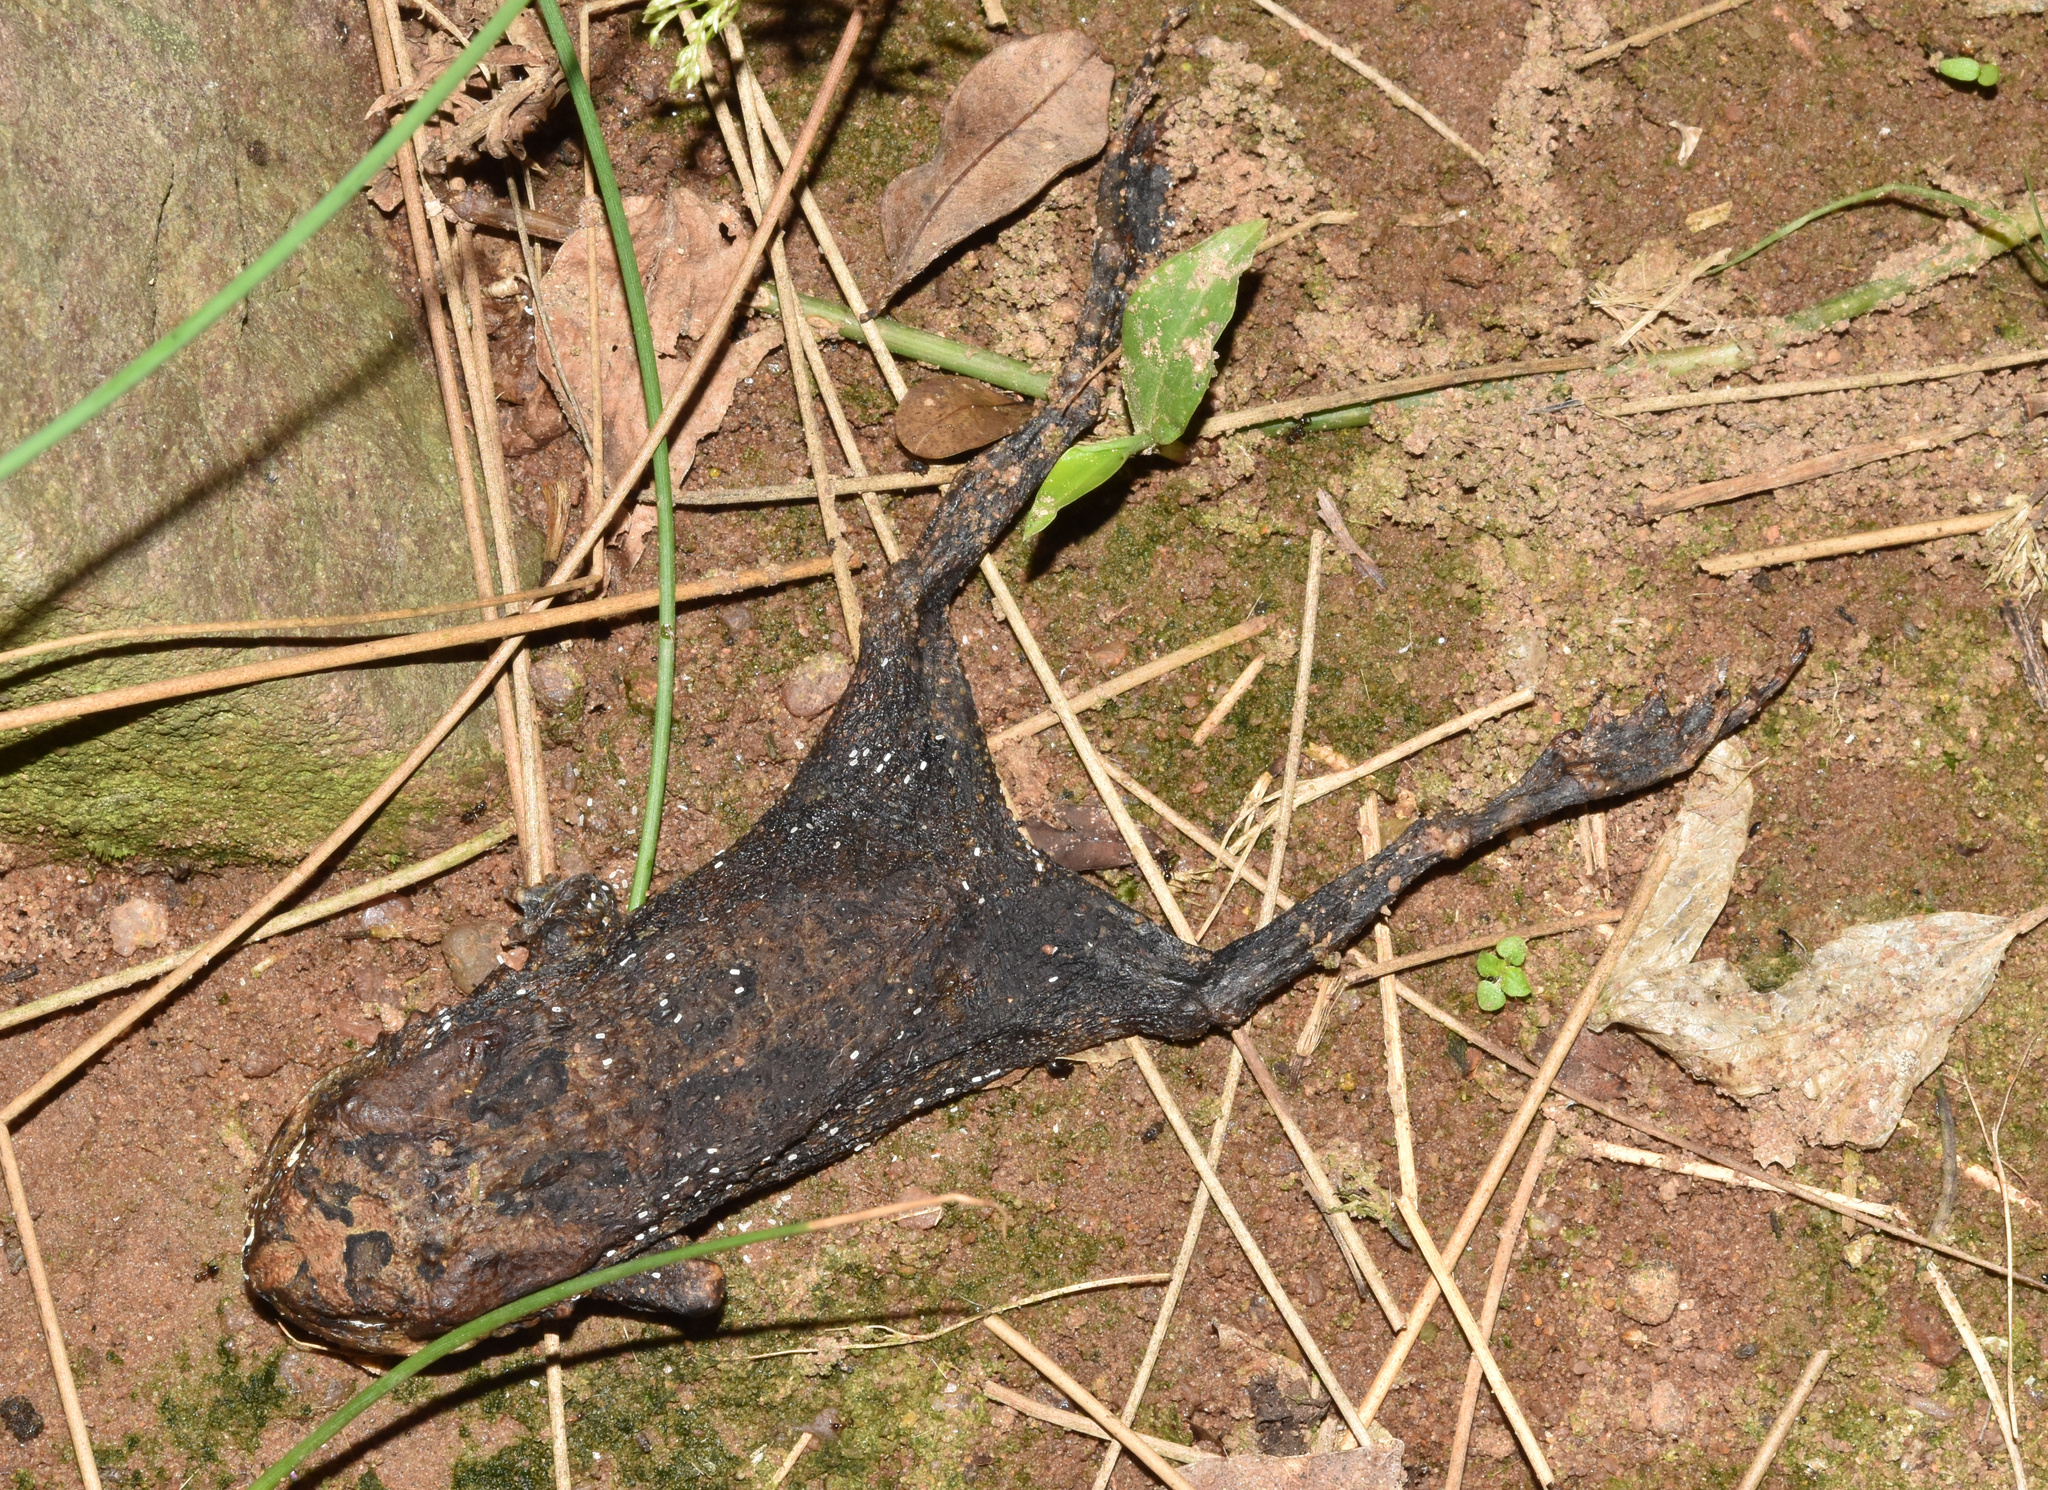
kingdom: Animalia
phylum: Chordata
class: Amphibia
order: Anura
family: Bufonidae
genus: Sclerophrys
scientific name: Sclerophrys gutturalis
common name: African common toad
